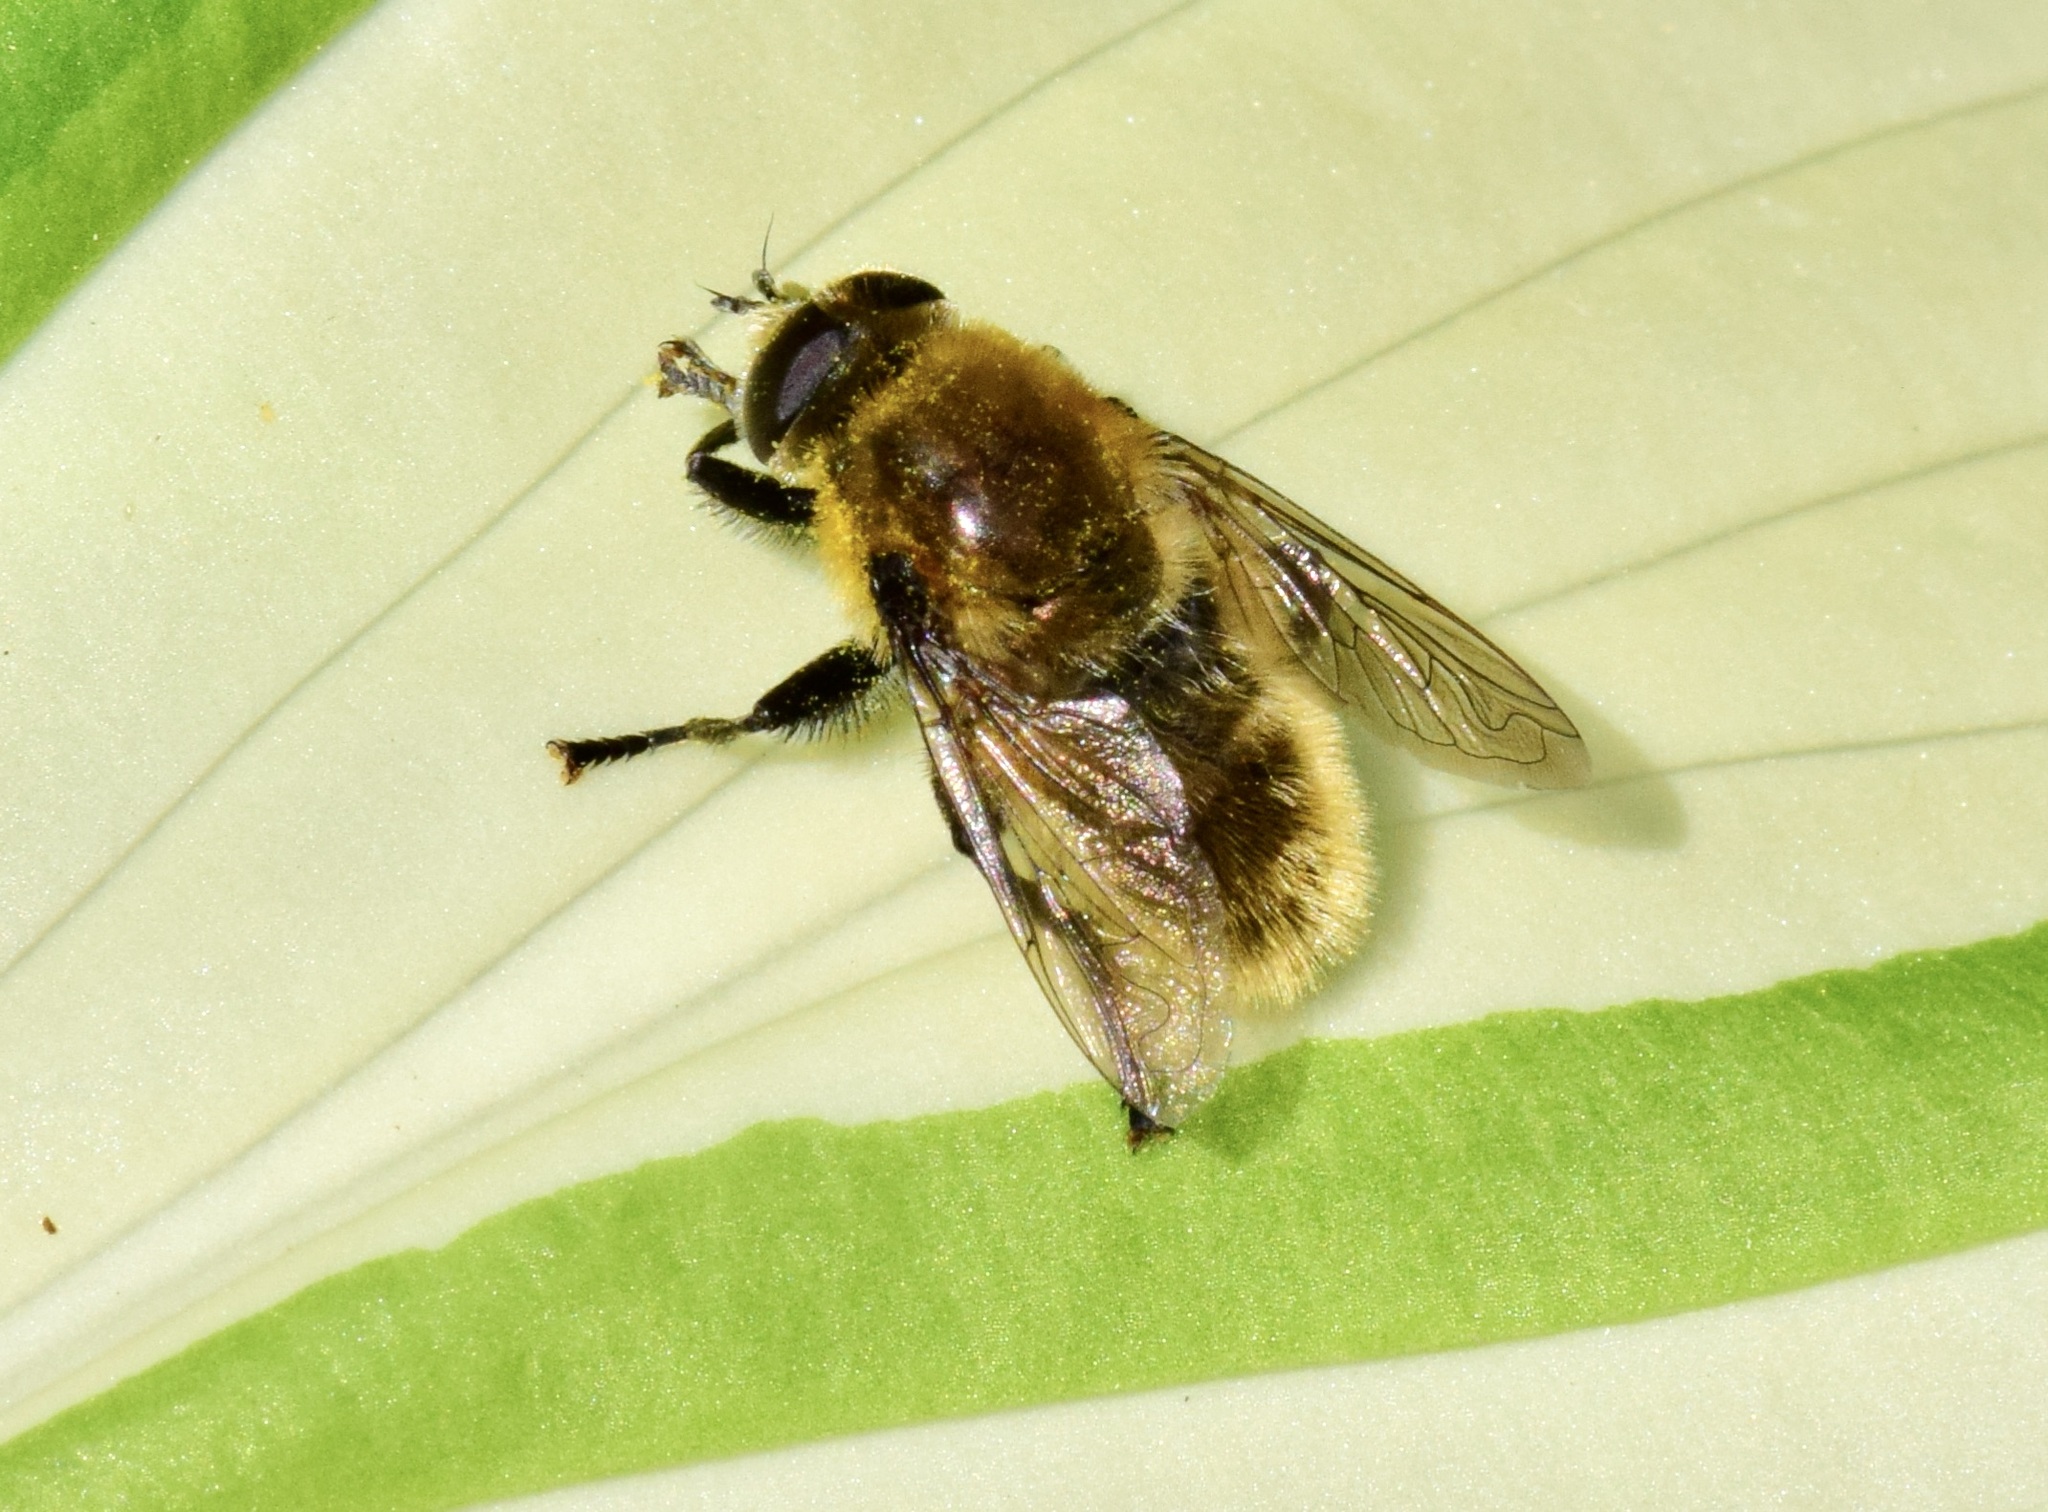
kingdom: Animalia
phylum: Arthropoda
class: Insecta
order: Diptera
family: Syrphidae
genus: Merodon
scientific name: Merodon equestris
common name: Greater bulb-fly
